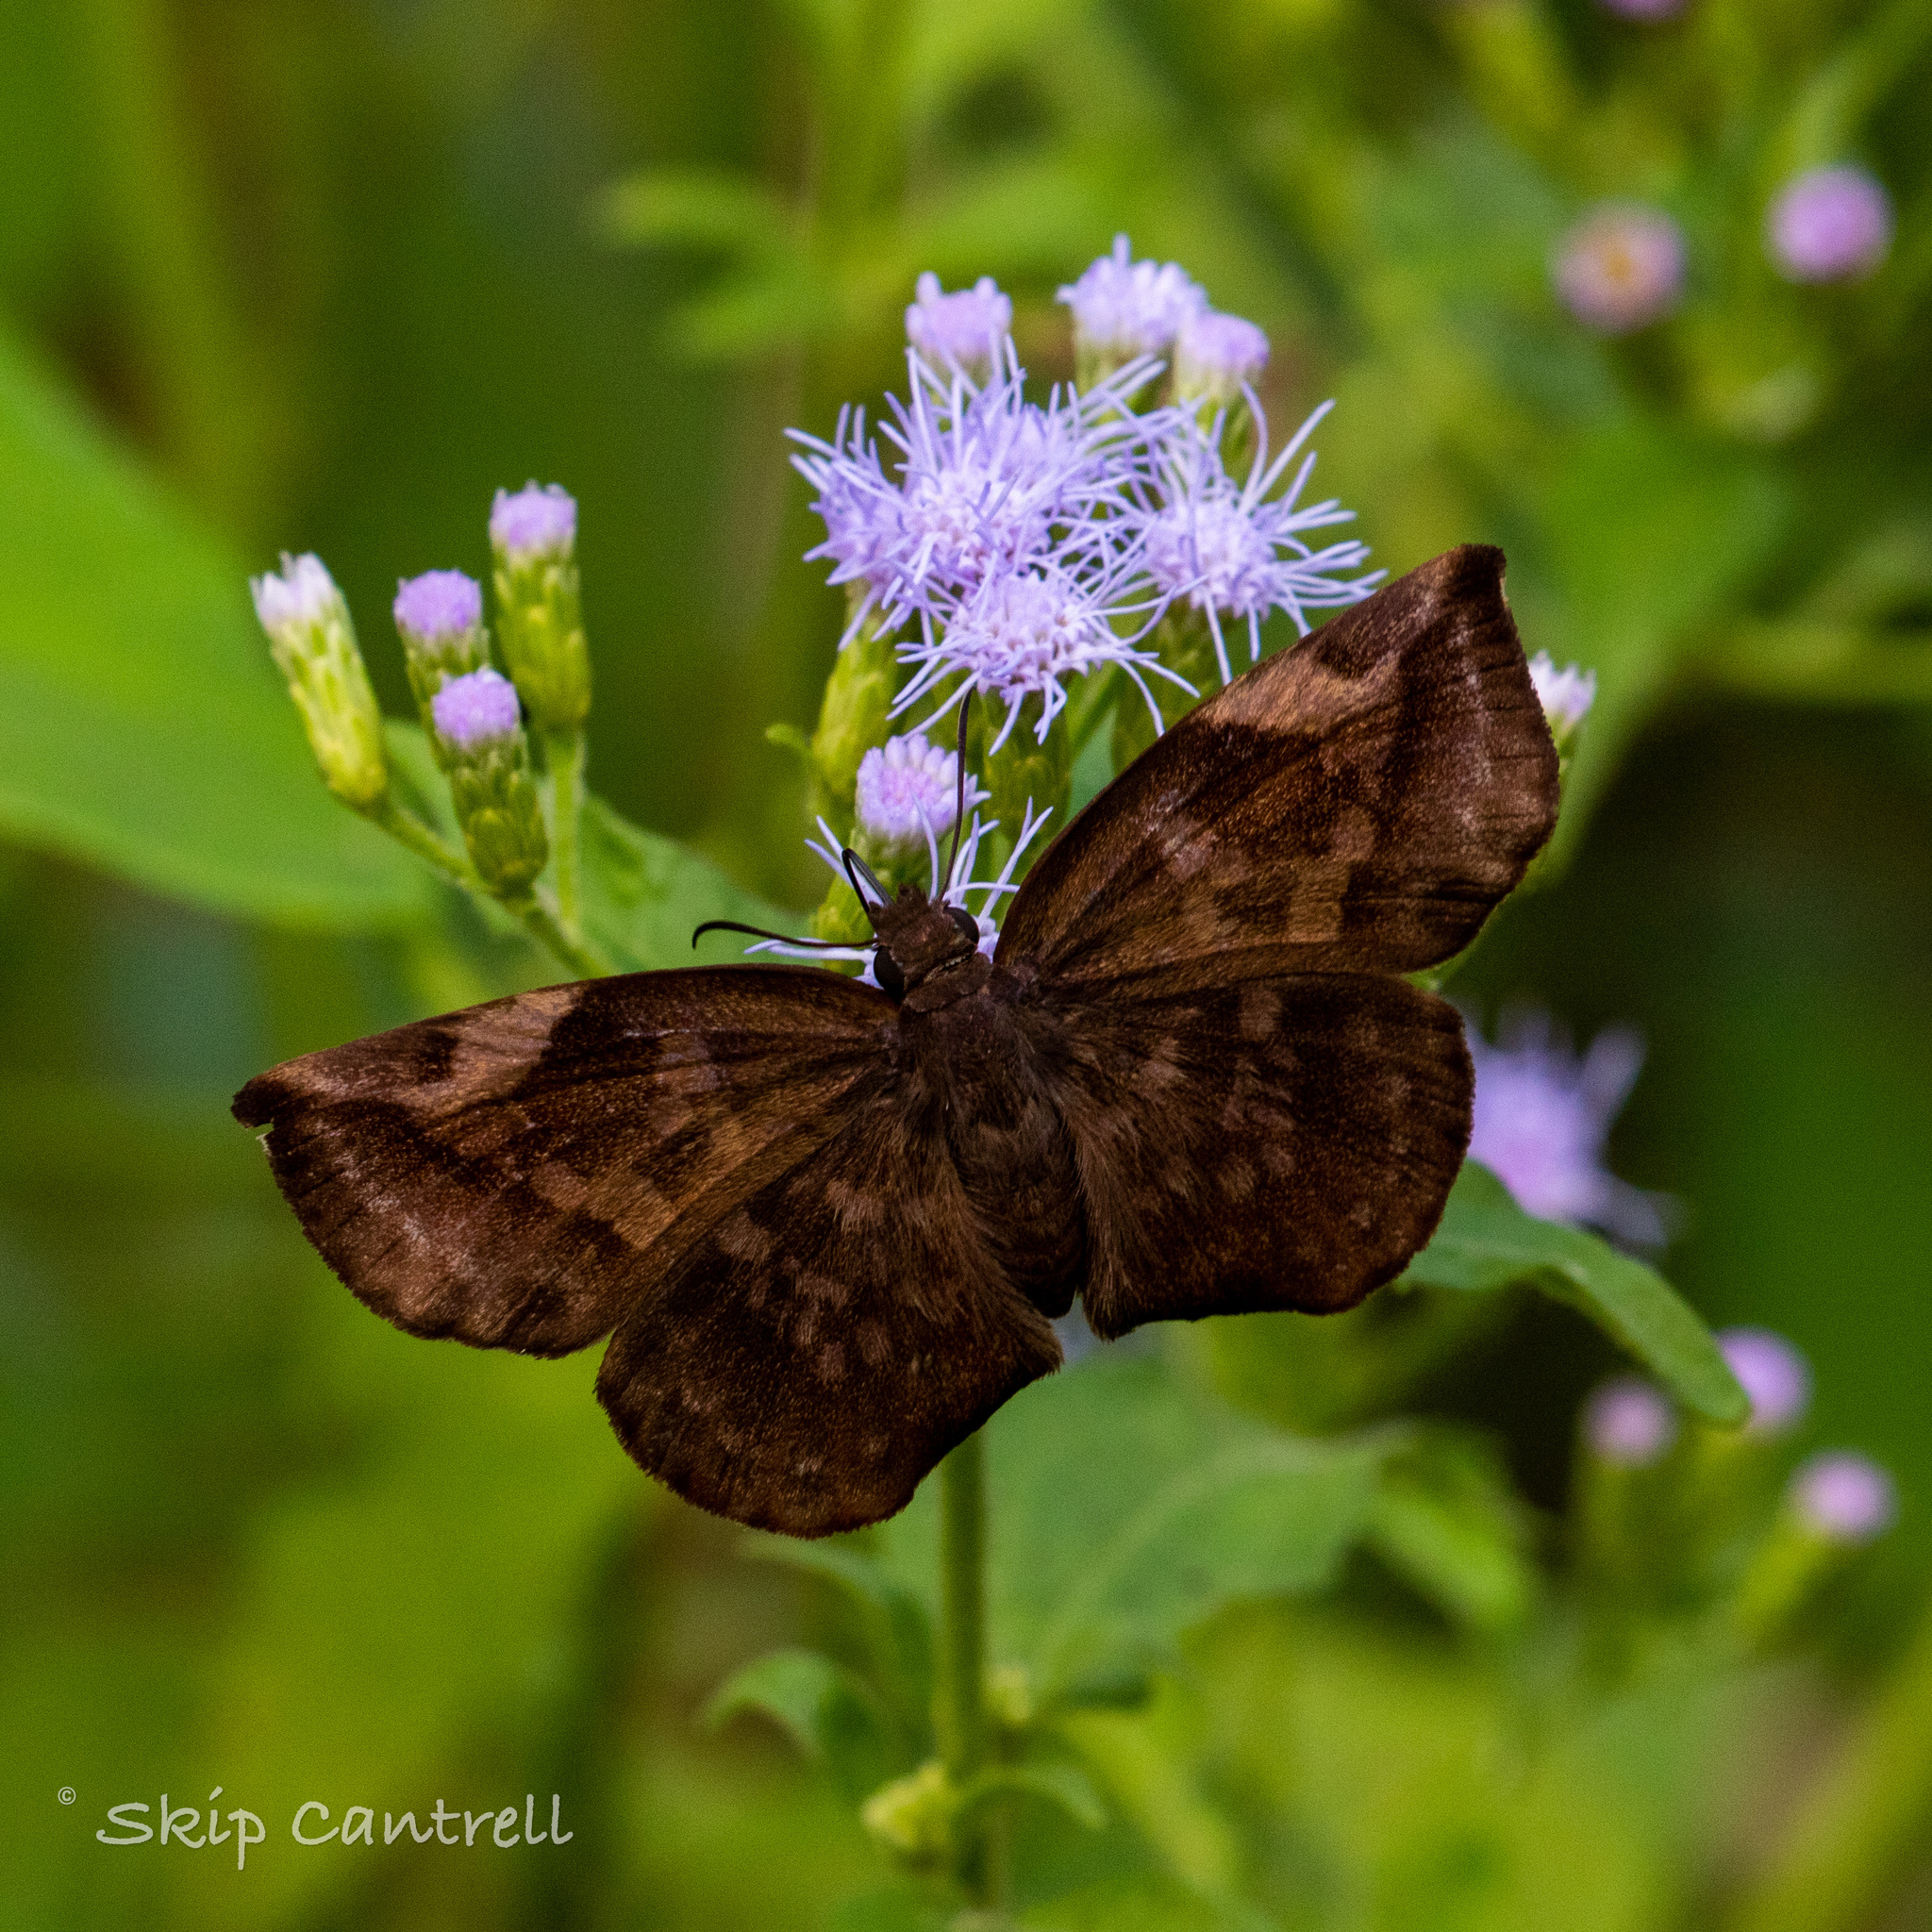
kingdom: Animalia
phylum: Arthropoda
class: Insecta
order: Lepidoptera
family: Hesperiidae
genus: Achlyodes
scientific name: Achlyodes thraso
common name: Sickle-winged skipper
